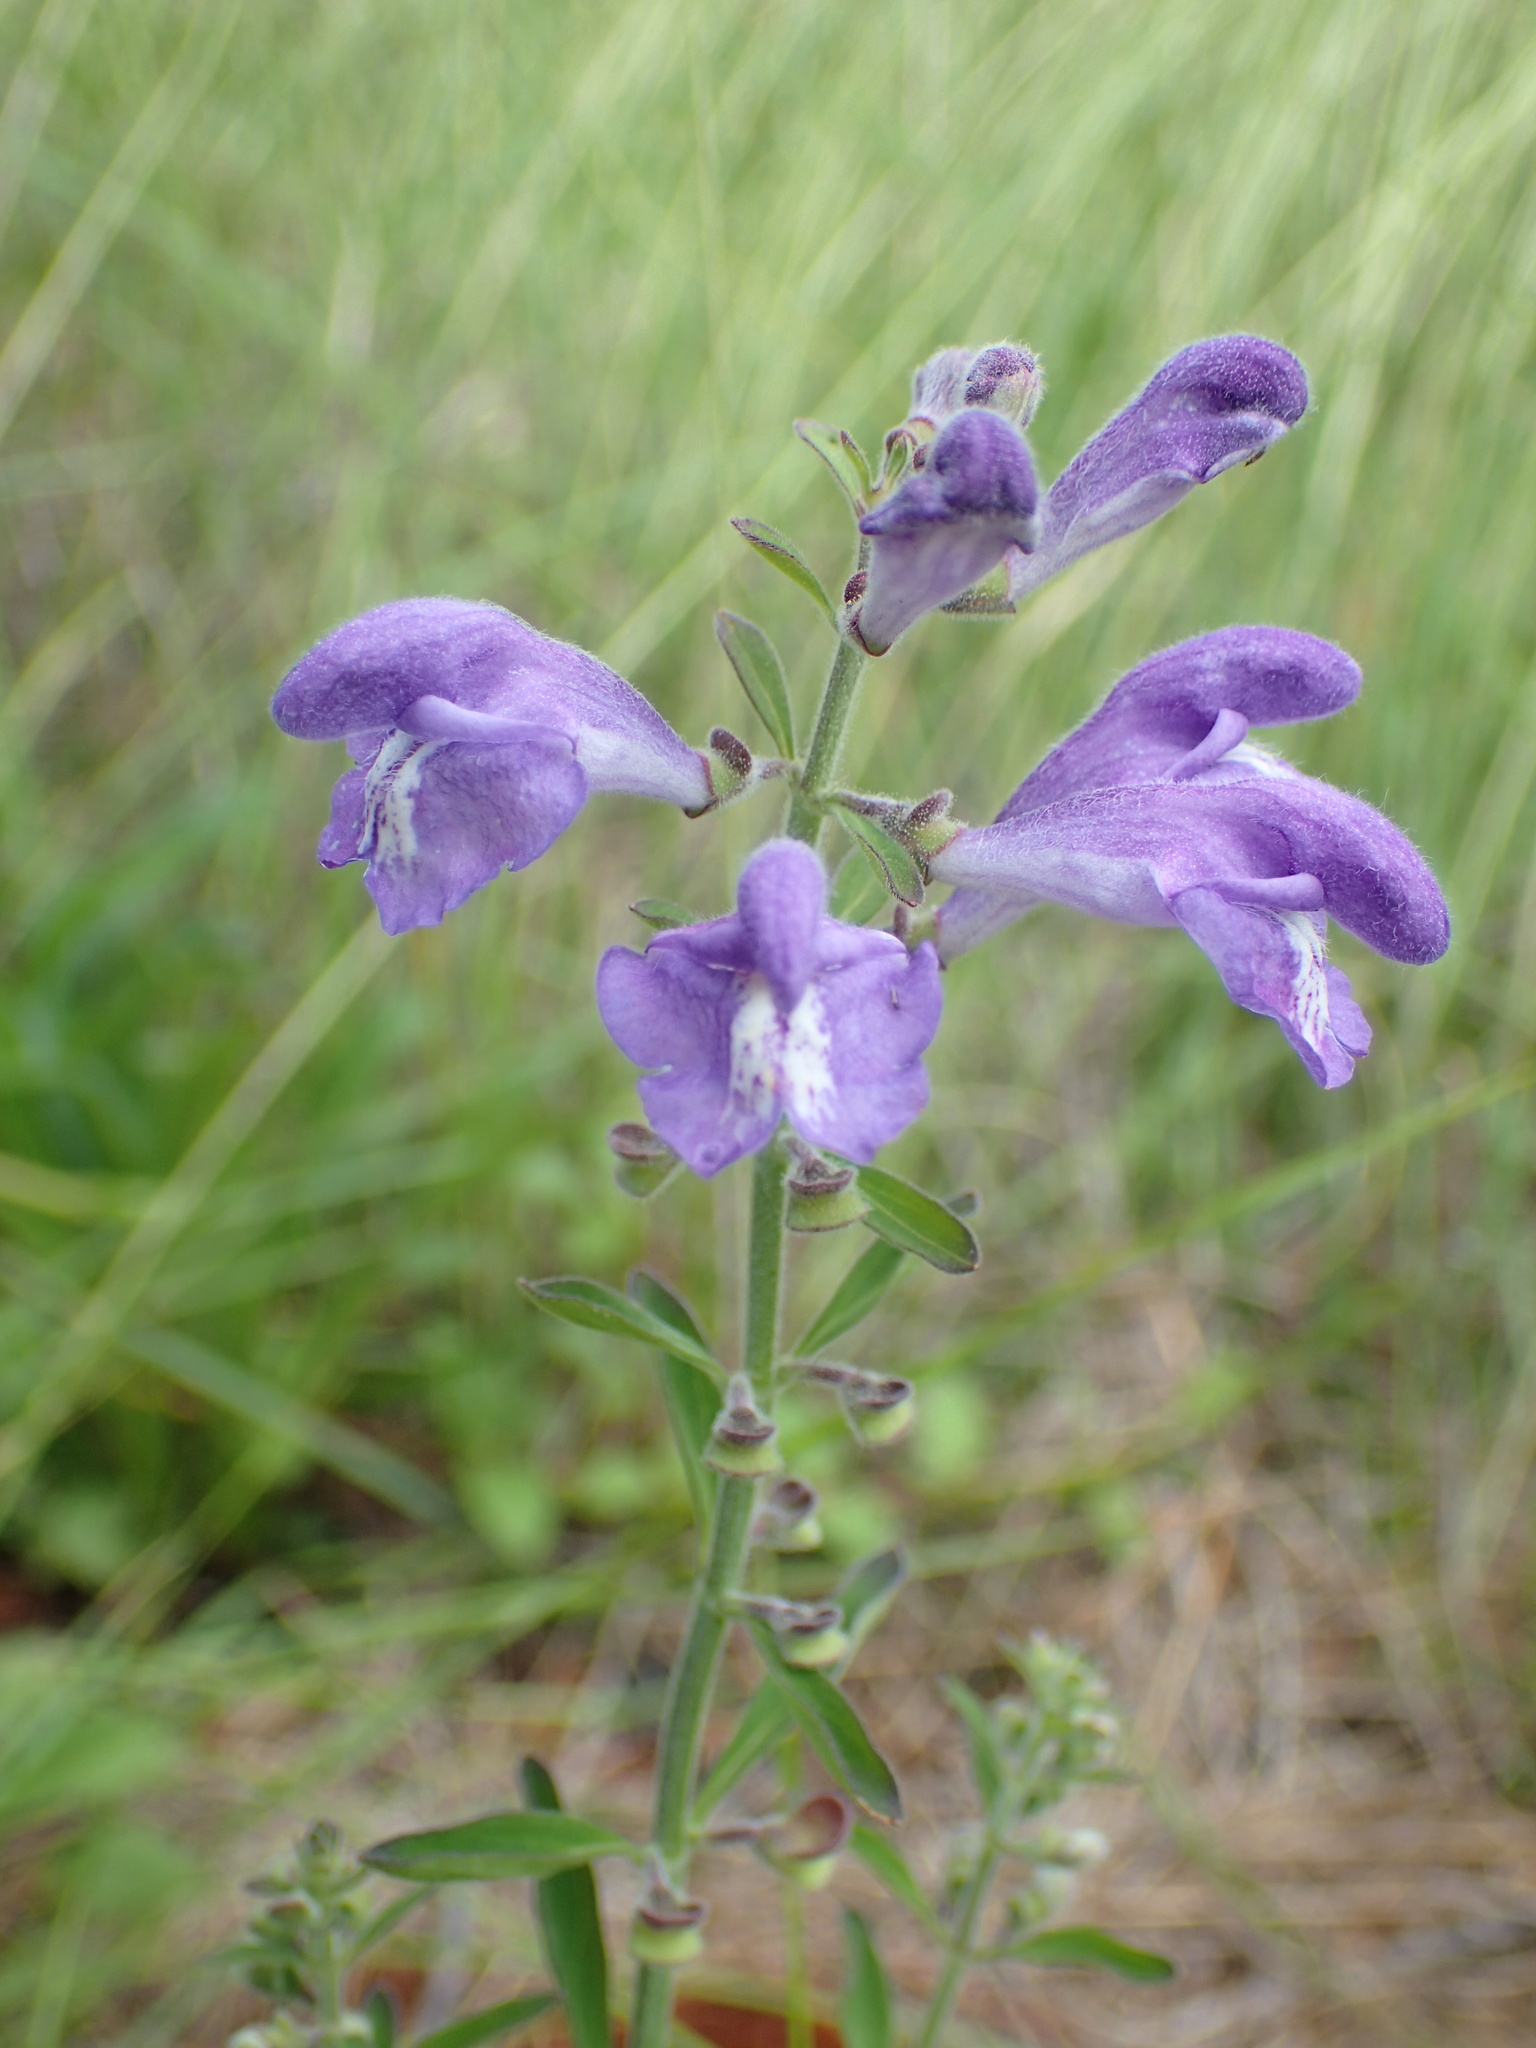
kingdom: Plantae
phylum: Tracheophyta
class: Magnoliopsida
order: Lamiales
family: Lamiaceae
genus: Scutellaria
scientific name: Scutellaria integrifolia
